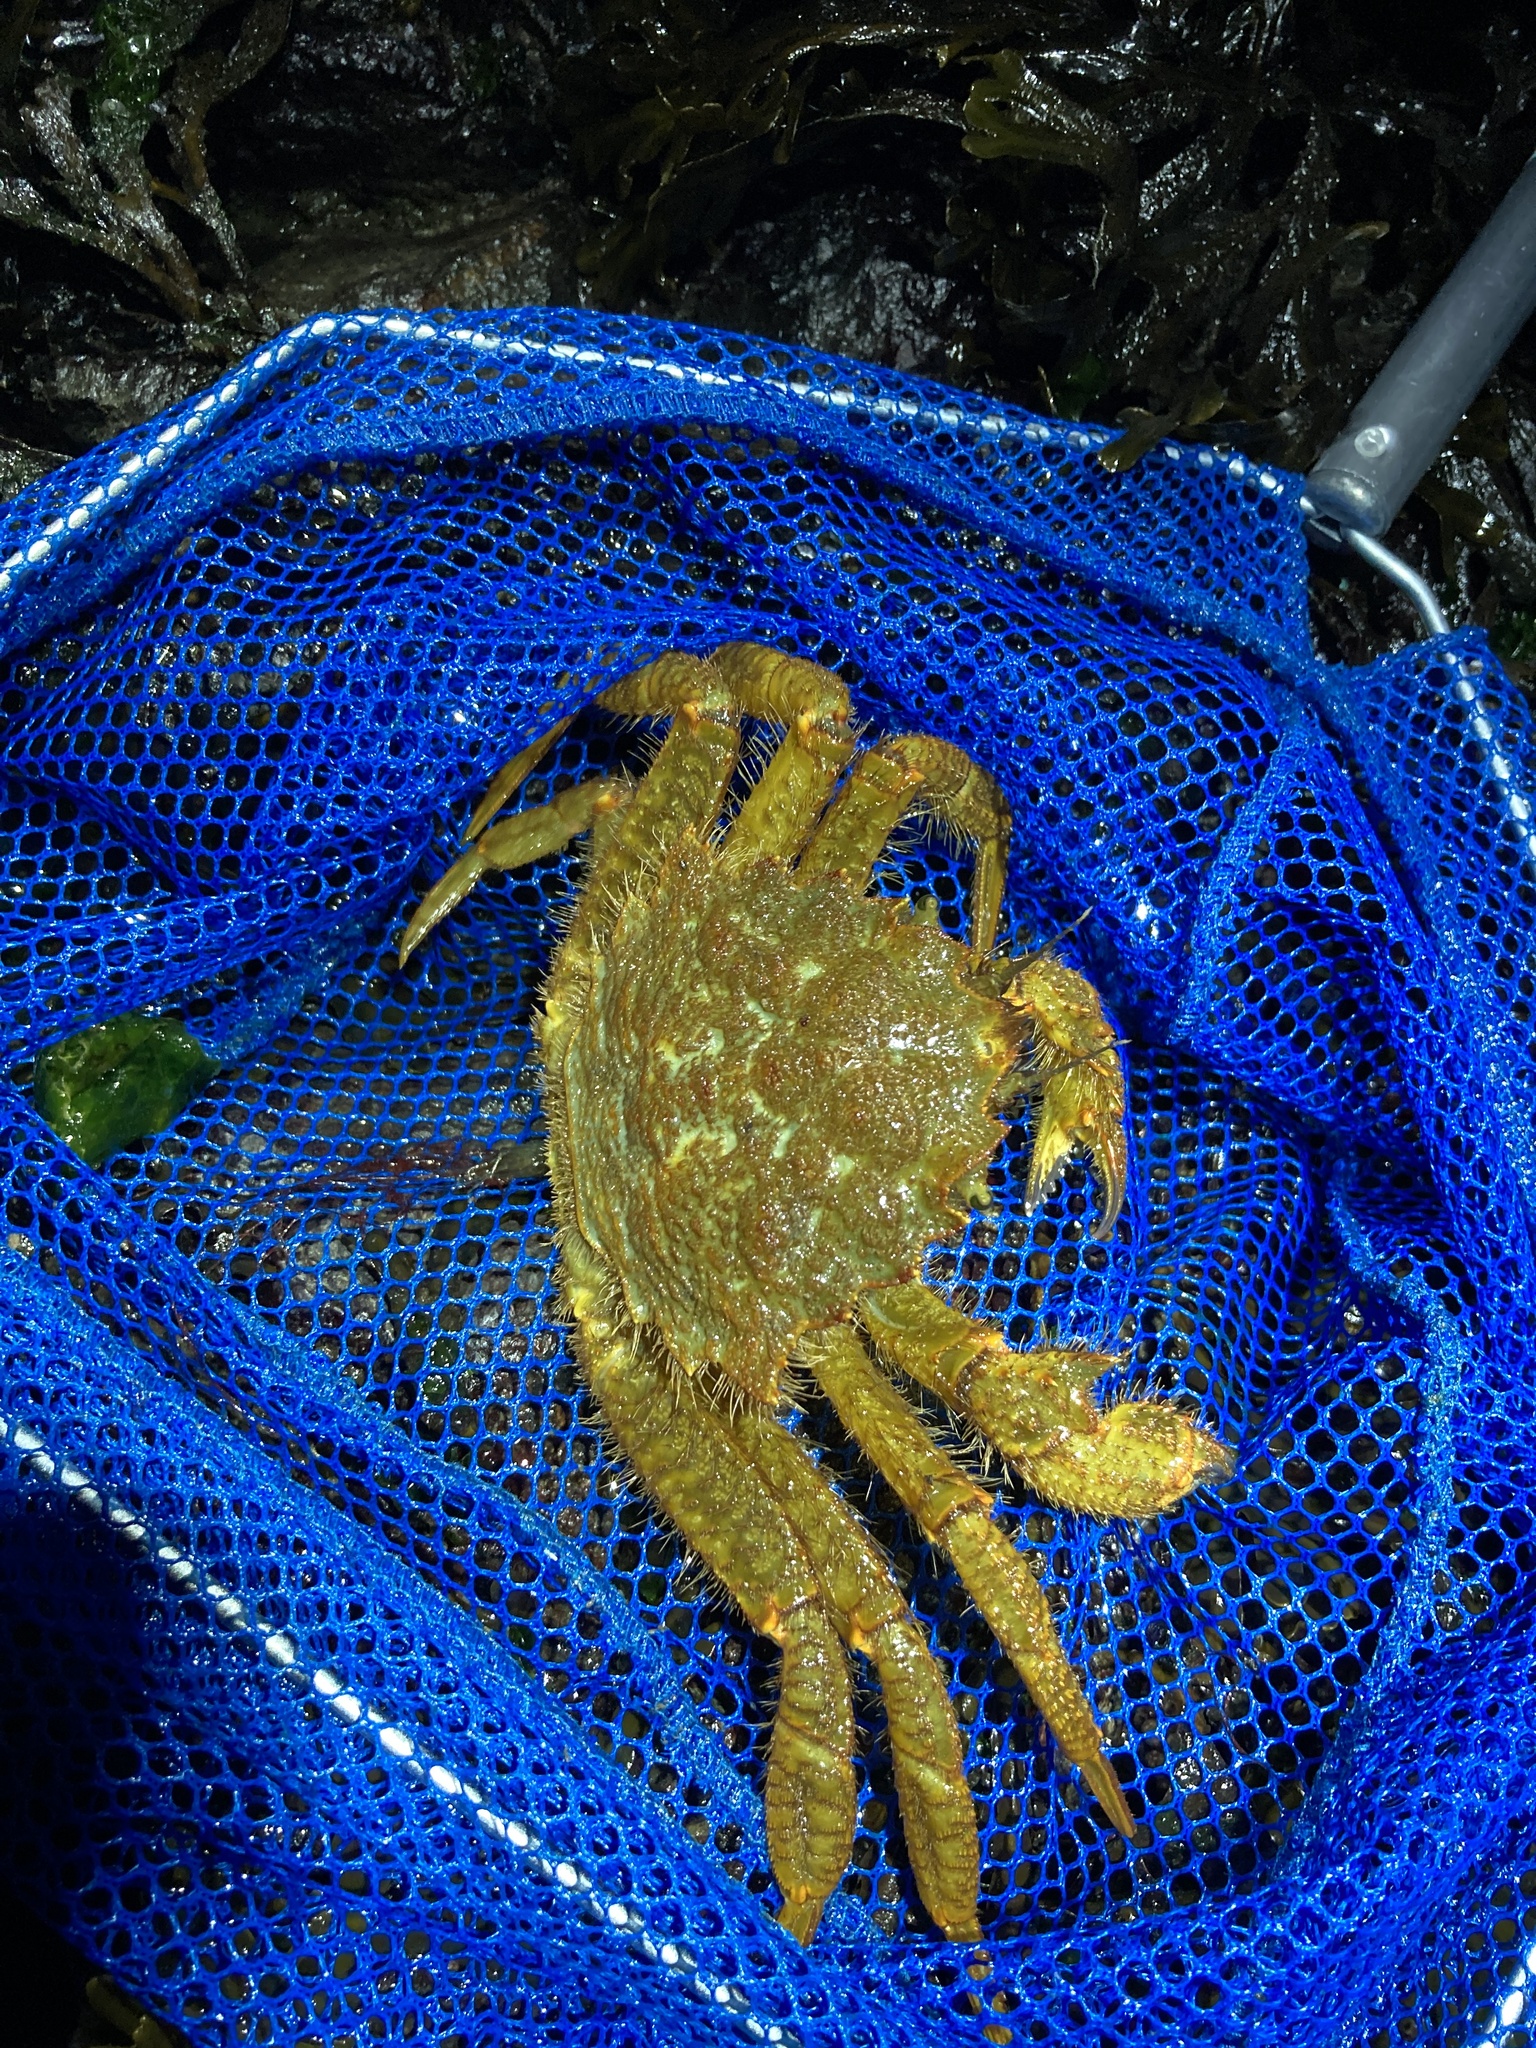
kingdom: Animalia
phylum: Arthropoda
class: Malacostraca
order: Decapoda
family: Cheiragonidae
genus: Telmessus
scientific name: Telmessus cheiragonus
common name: Helmet crab
